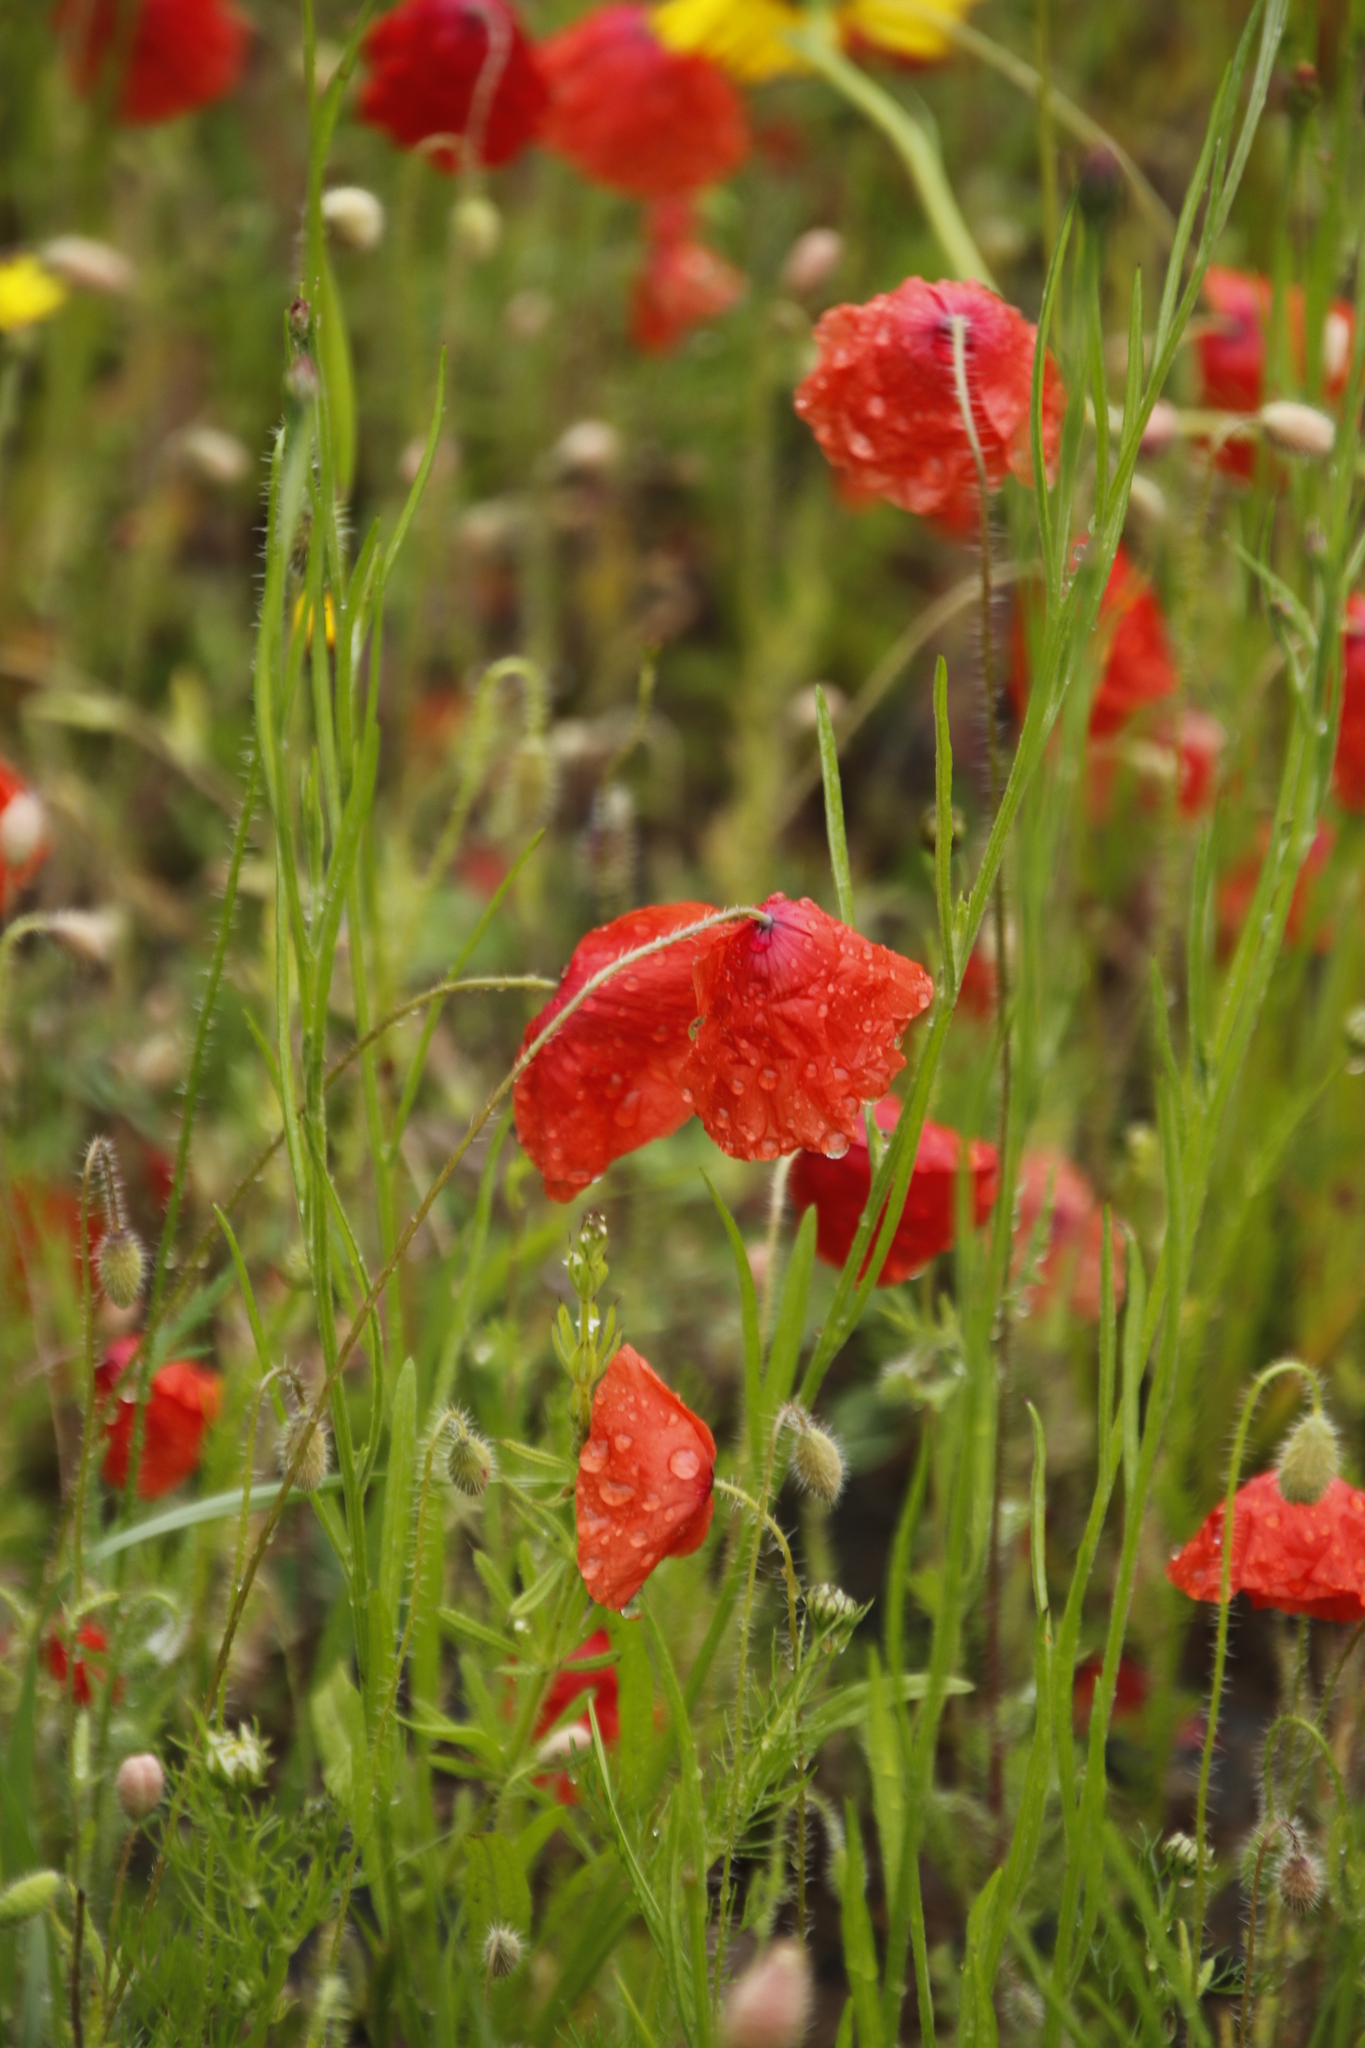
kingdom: Plantae
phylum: Tracheophyta
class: Magnoliopsida
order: Ranunculales
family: Papaveraceae
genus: Papaver
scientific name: Papaver rhoeas
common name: Corn poppy
